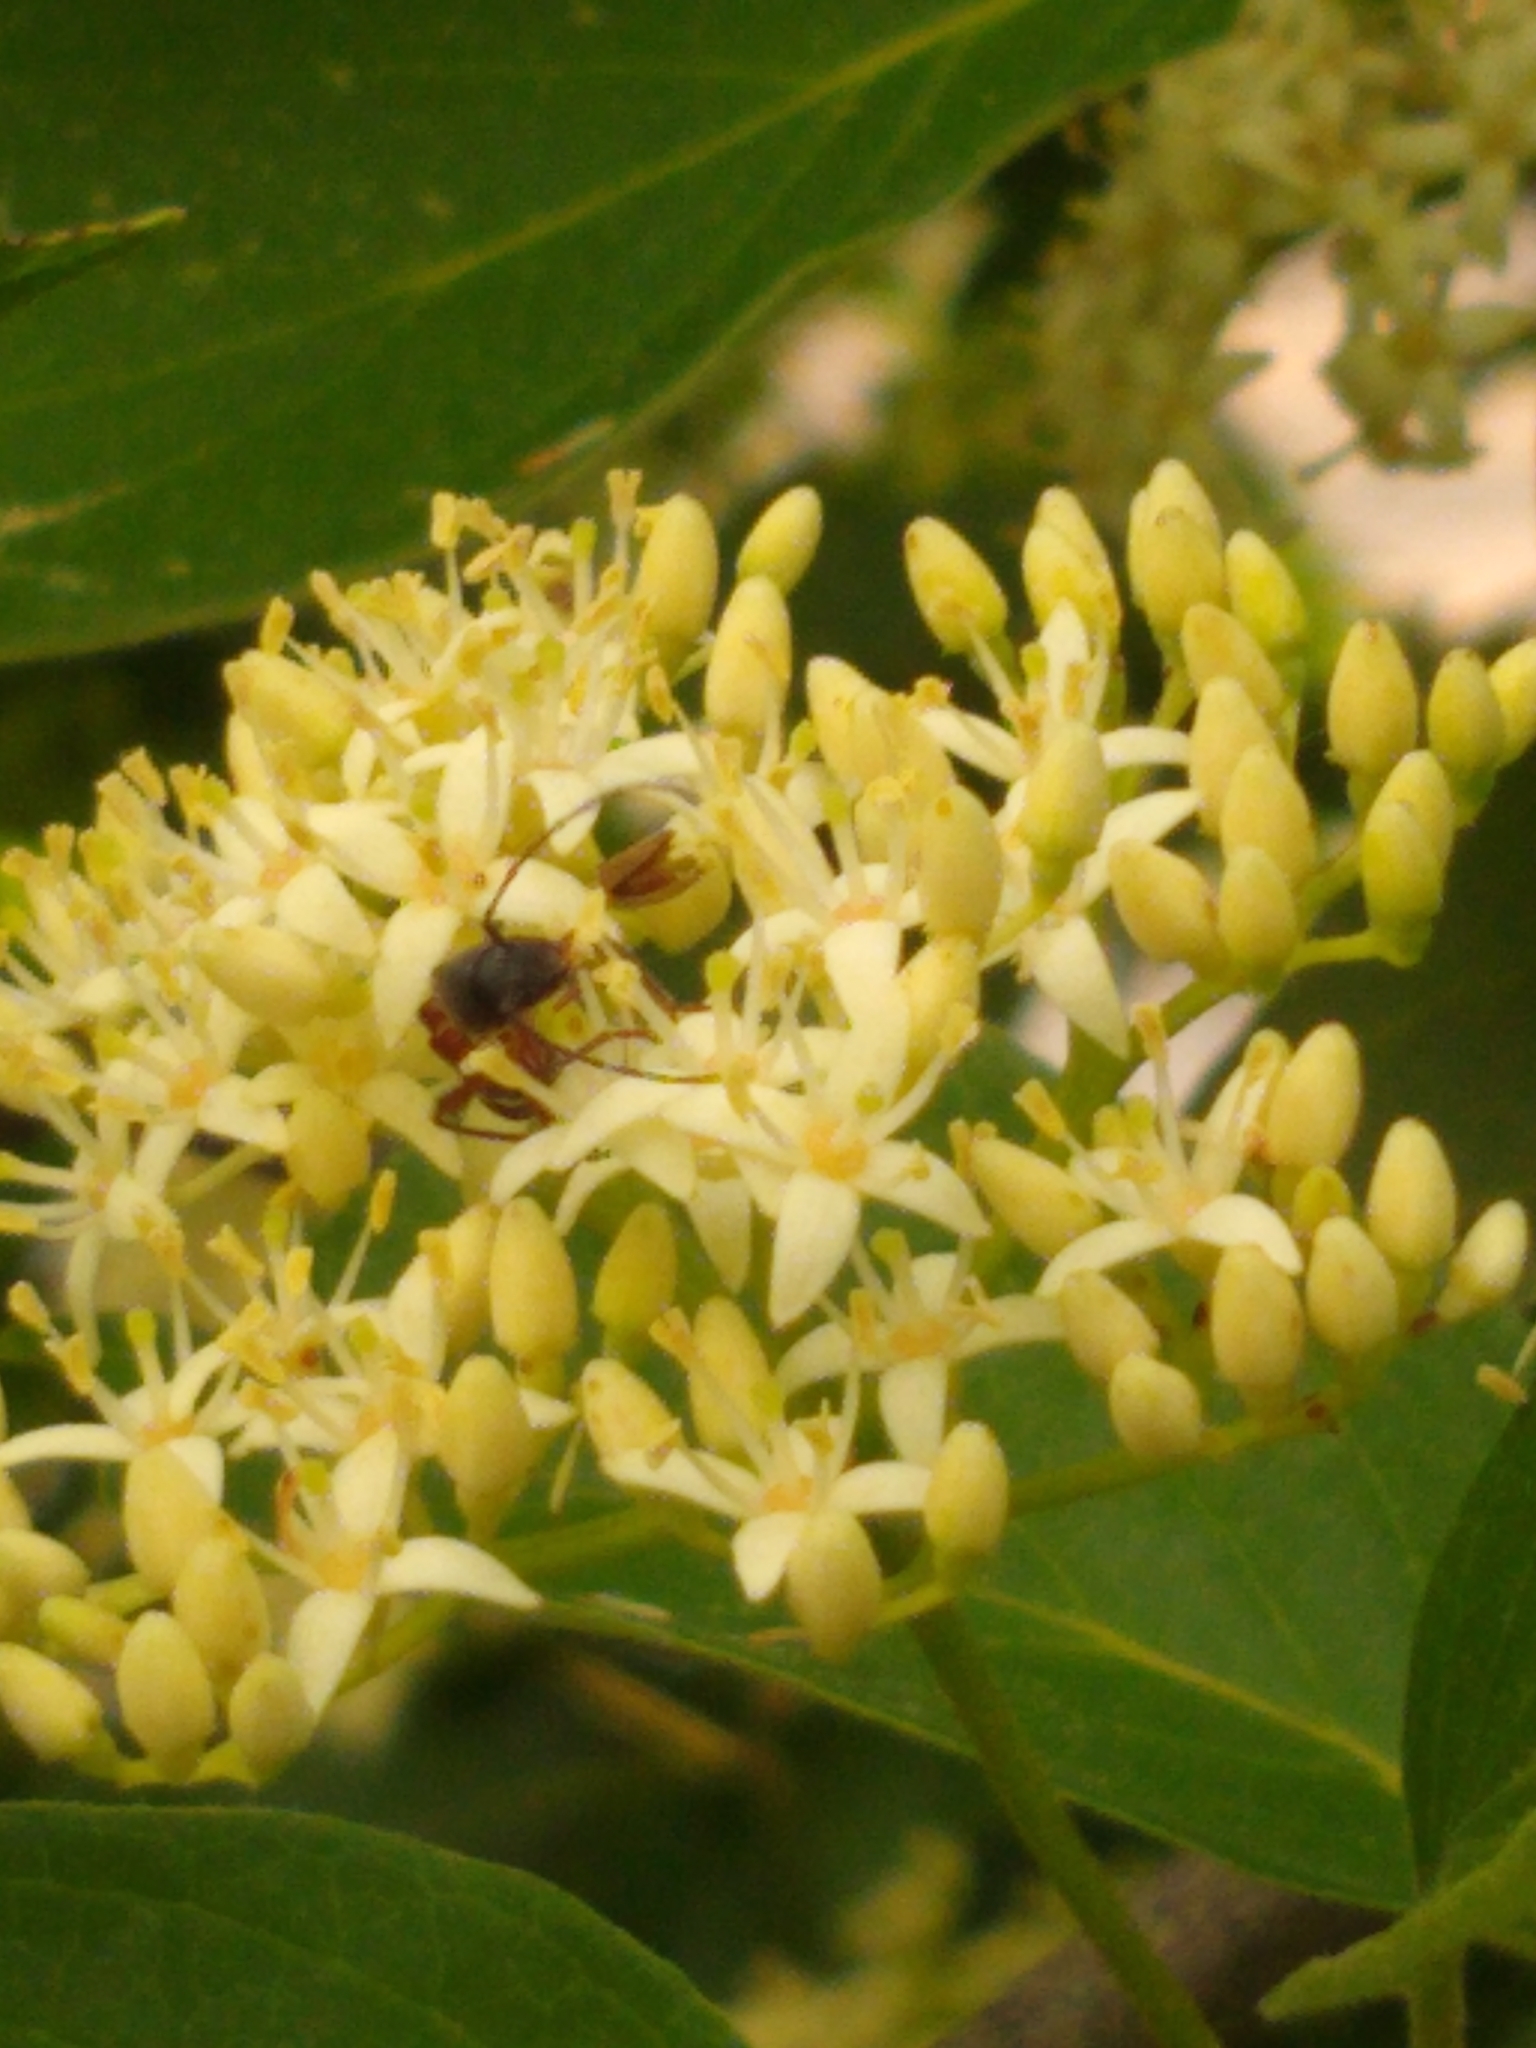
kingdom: Animalia
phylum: Arthropoda
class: Insecta
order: Coleoptera
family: Cerambycidae
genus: Cyrtophorus
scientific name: Cyrtophorus verrucosus
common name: Ant-like longhorn beetle
